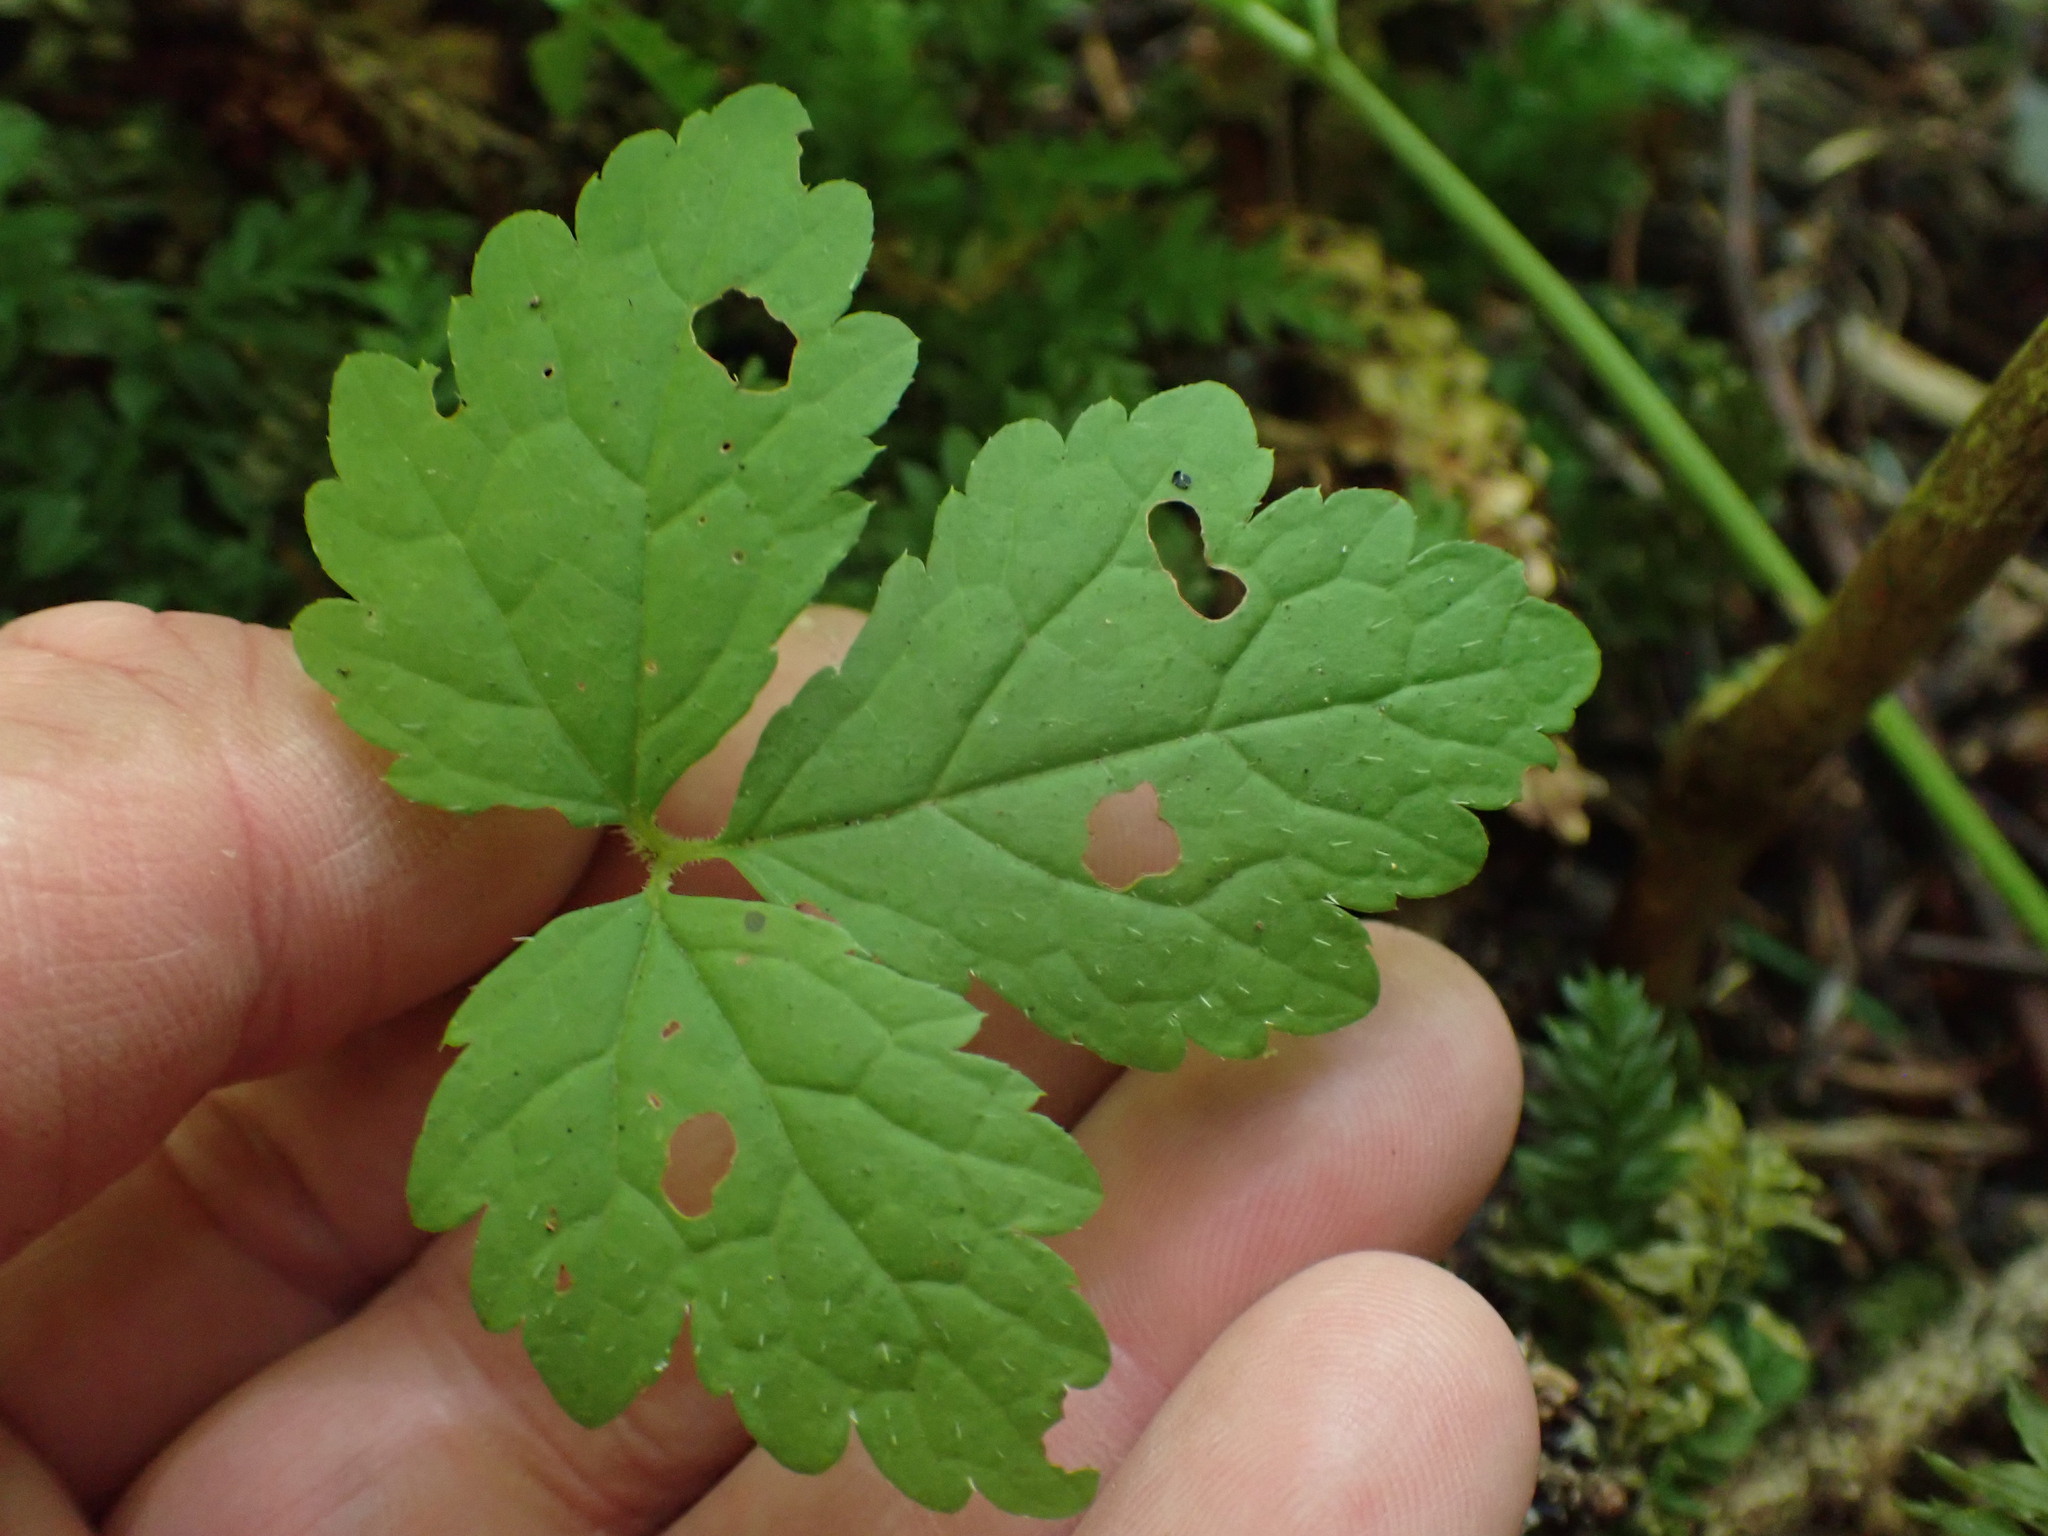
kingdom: Plantae
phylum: Tracheophyta
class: Magnoliopsida
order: Saxifragales
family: Saxifragaceae
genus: Tiarella
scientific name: Tiarella trifoliata
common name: Sugar-scoop
